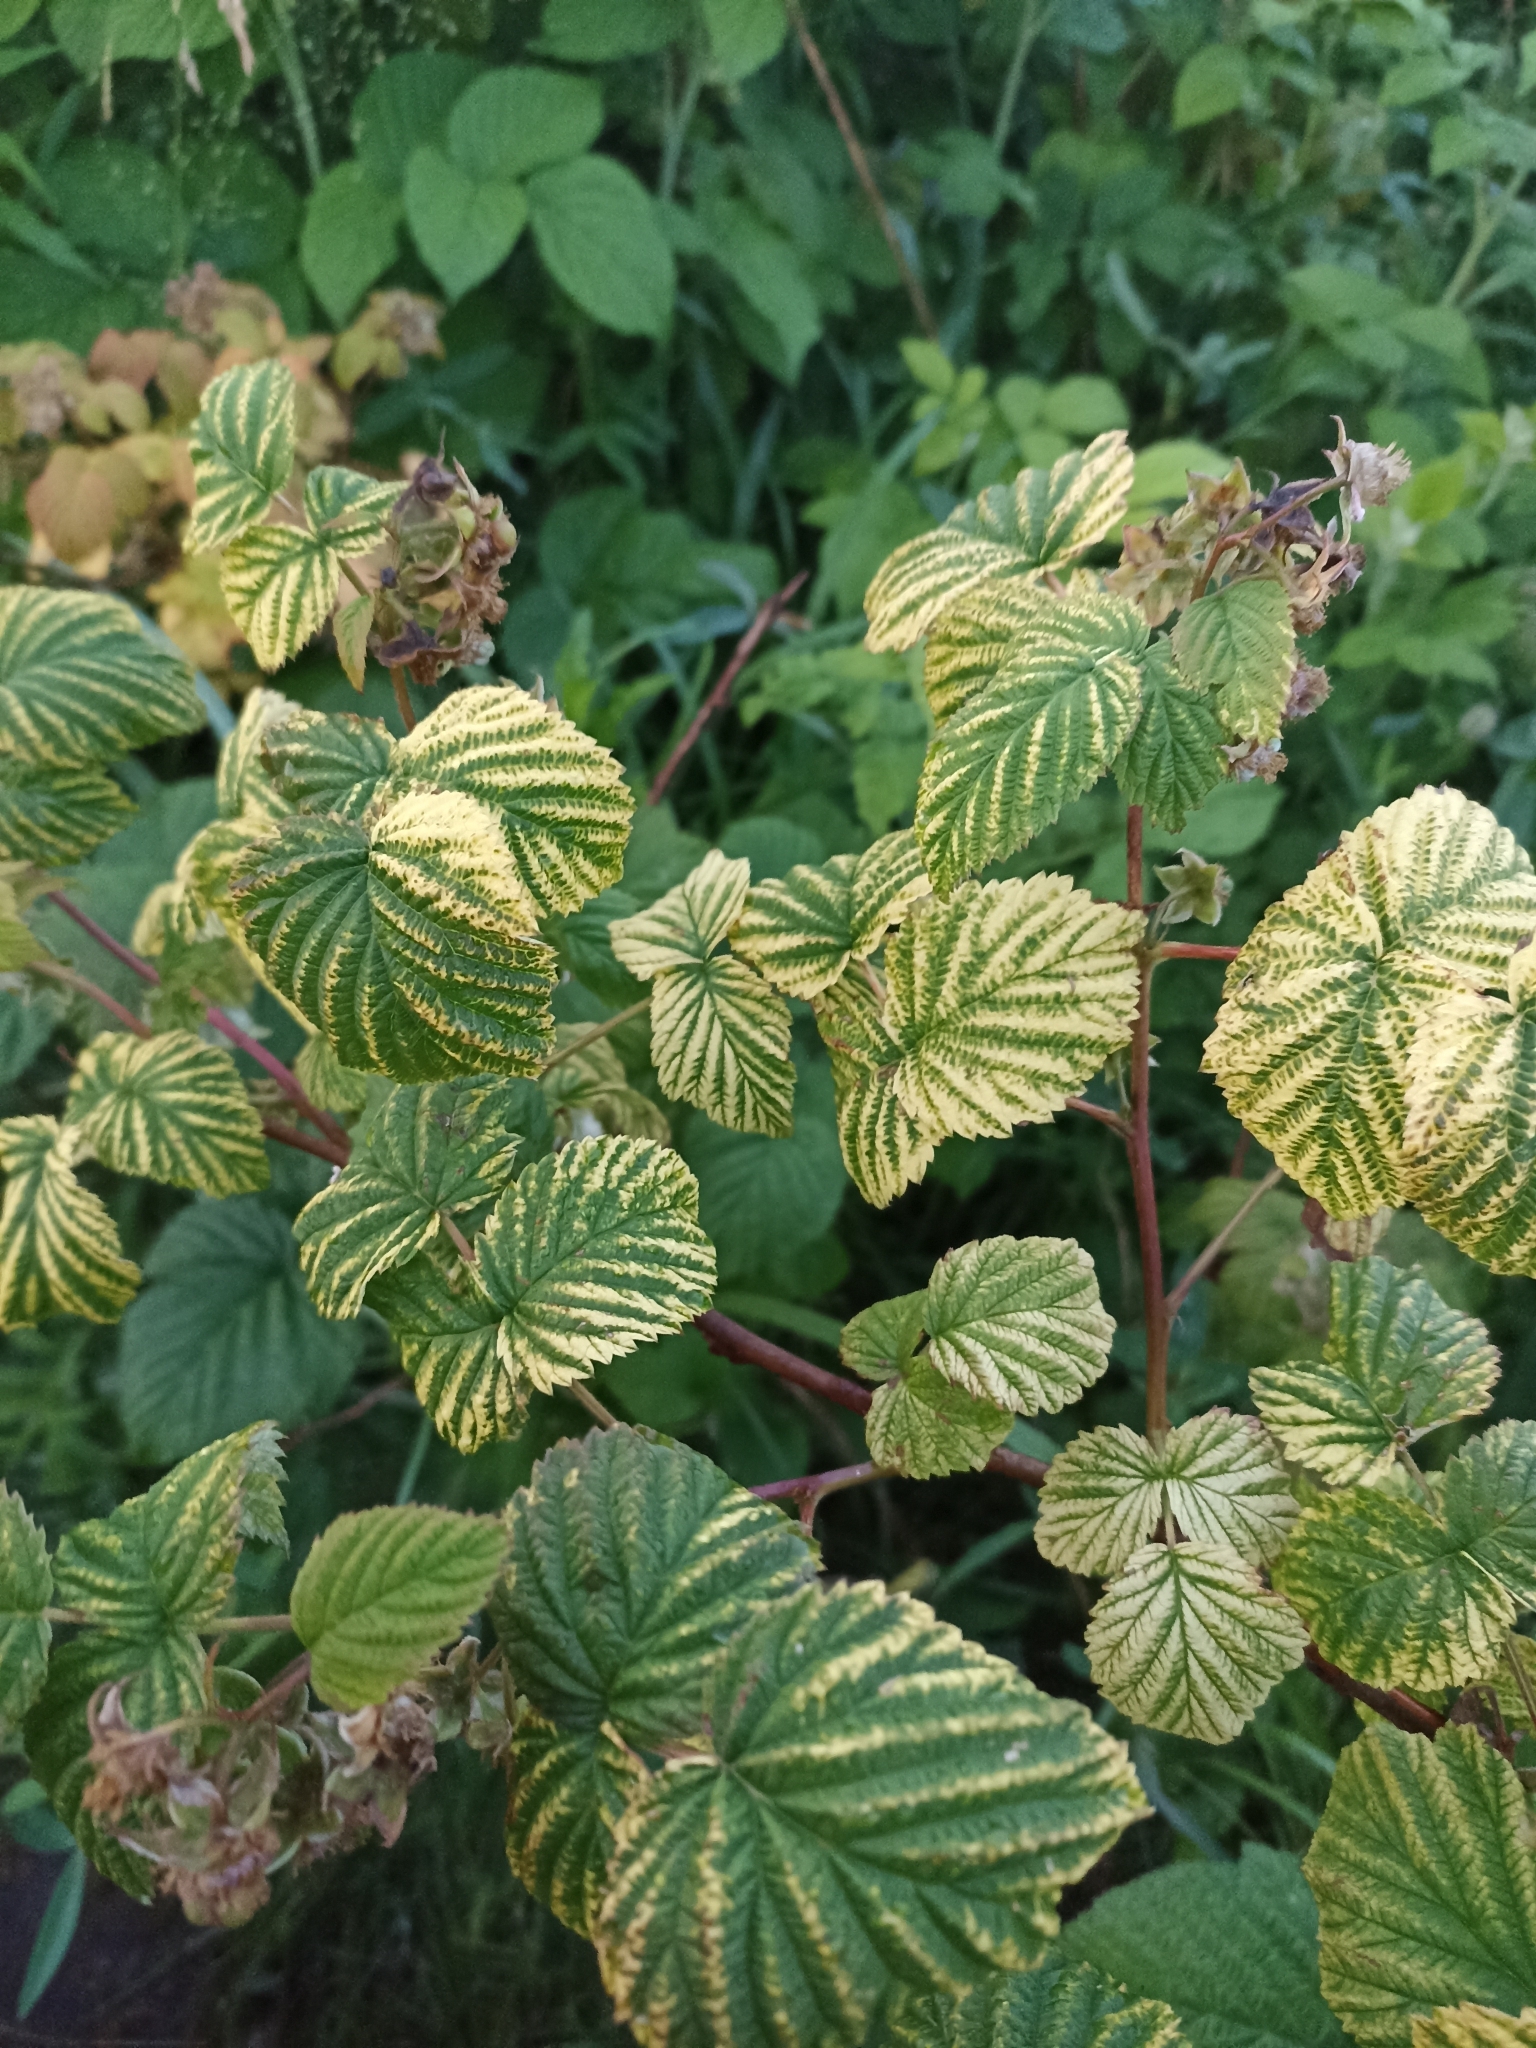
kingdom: Plantae
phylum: Tracheophyta
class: Magnoliopsida
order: Rosales
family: Rosaceae
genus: Rubus
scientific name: Rubus idaeus
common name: Raspberry
